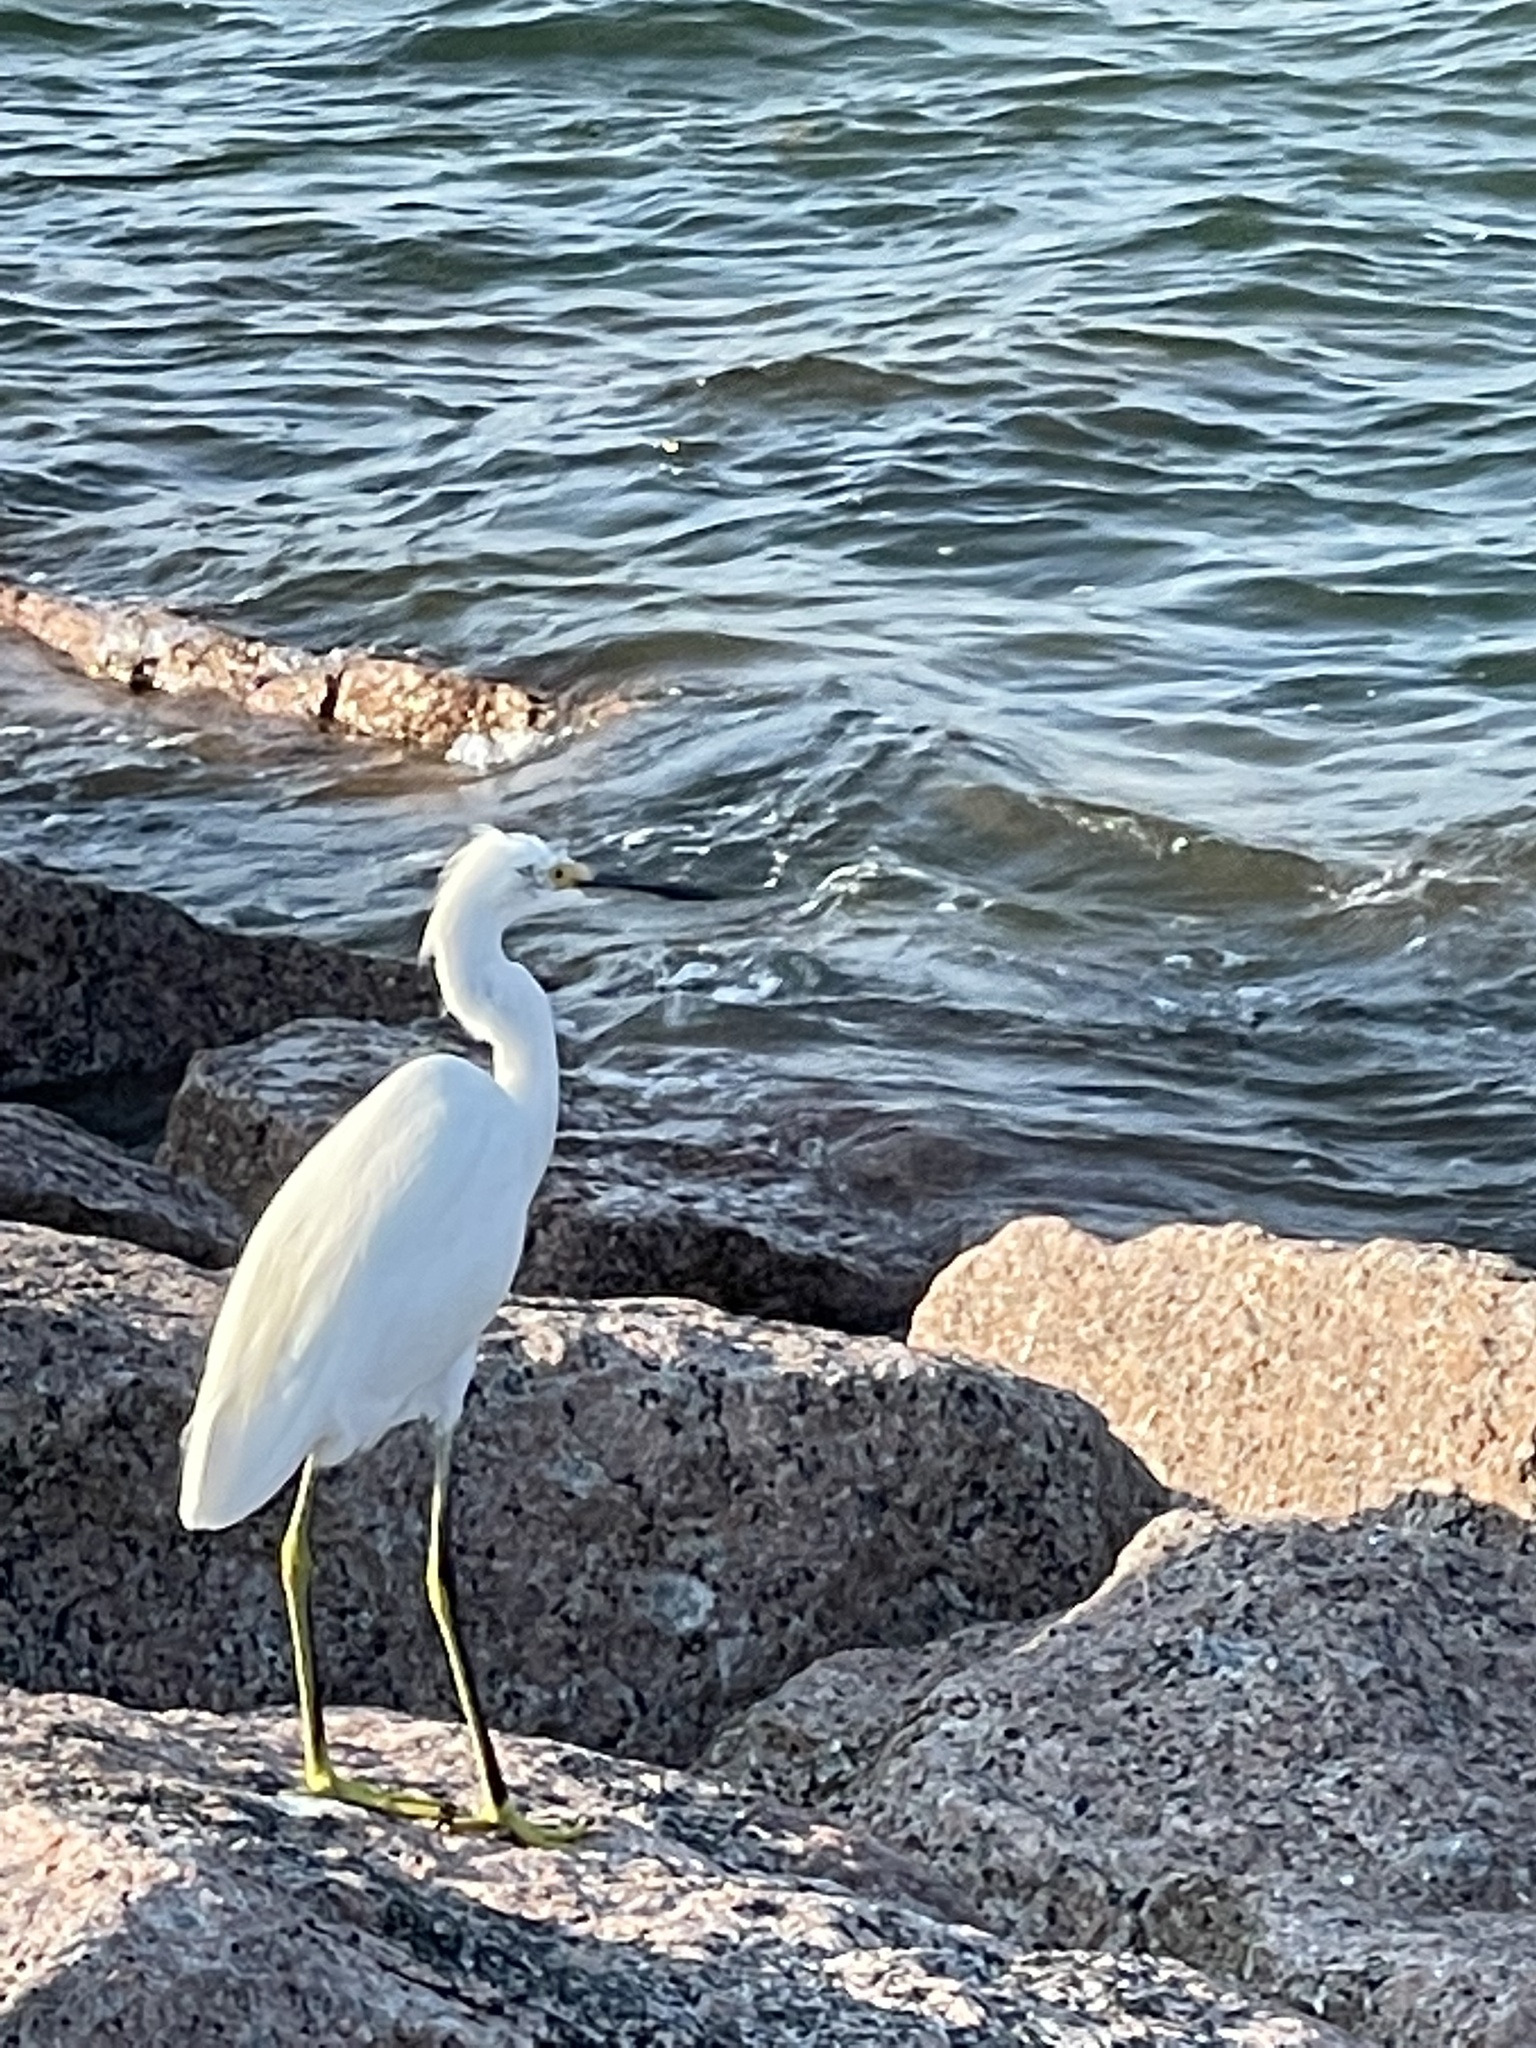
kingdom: Animalia
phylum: Chordata
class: Aves
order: Pelecaniformes
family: Ardeidae
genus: Egretta
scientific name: Egretta thula
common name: Snowy egret
